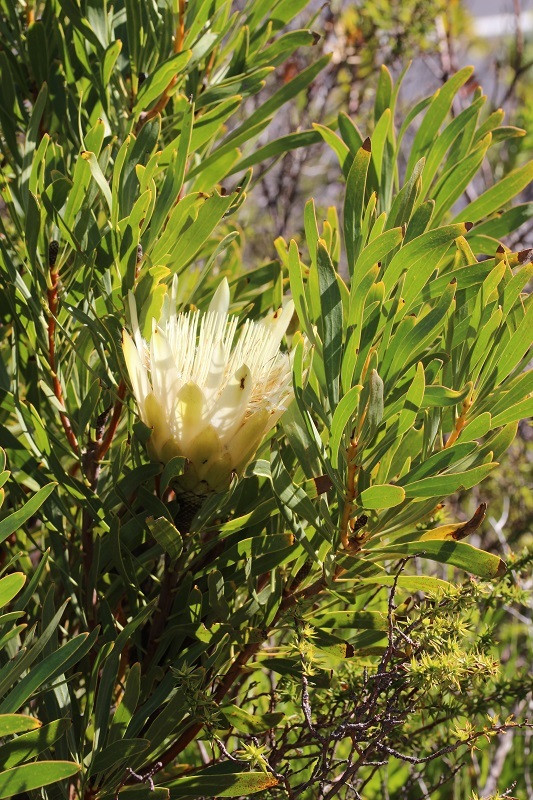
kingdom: Plantae
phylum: Tracheophyta
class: Magnoliopsida
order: Proteales
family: Proteaceae
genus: Protea
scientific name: Protea repens
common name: Sugarbush
